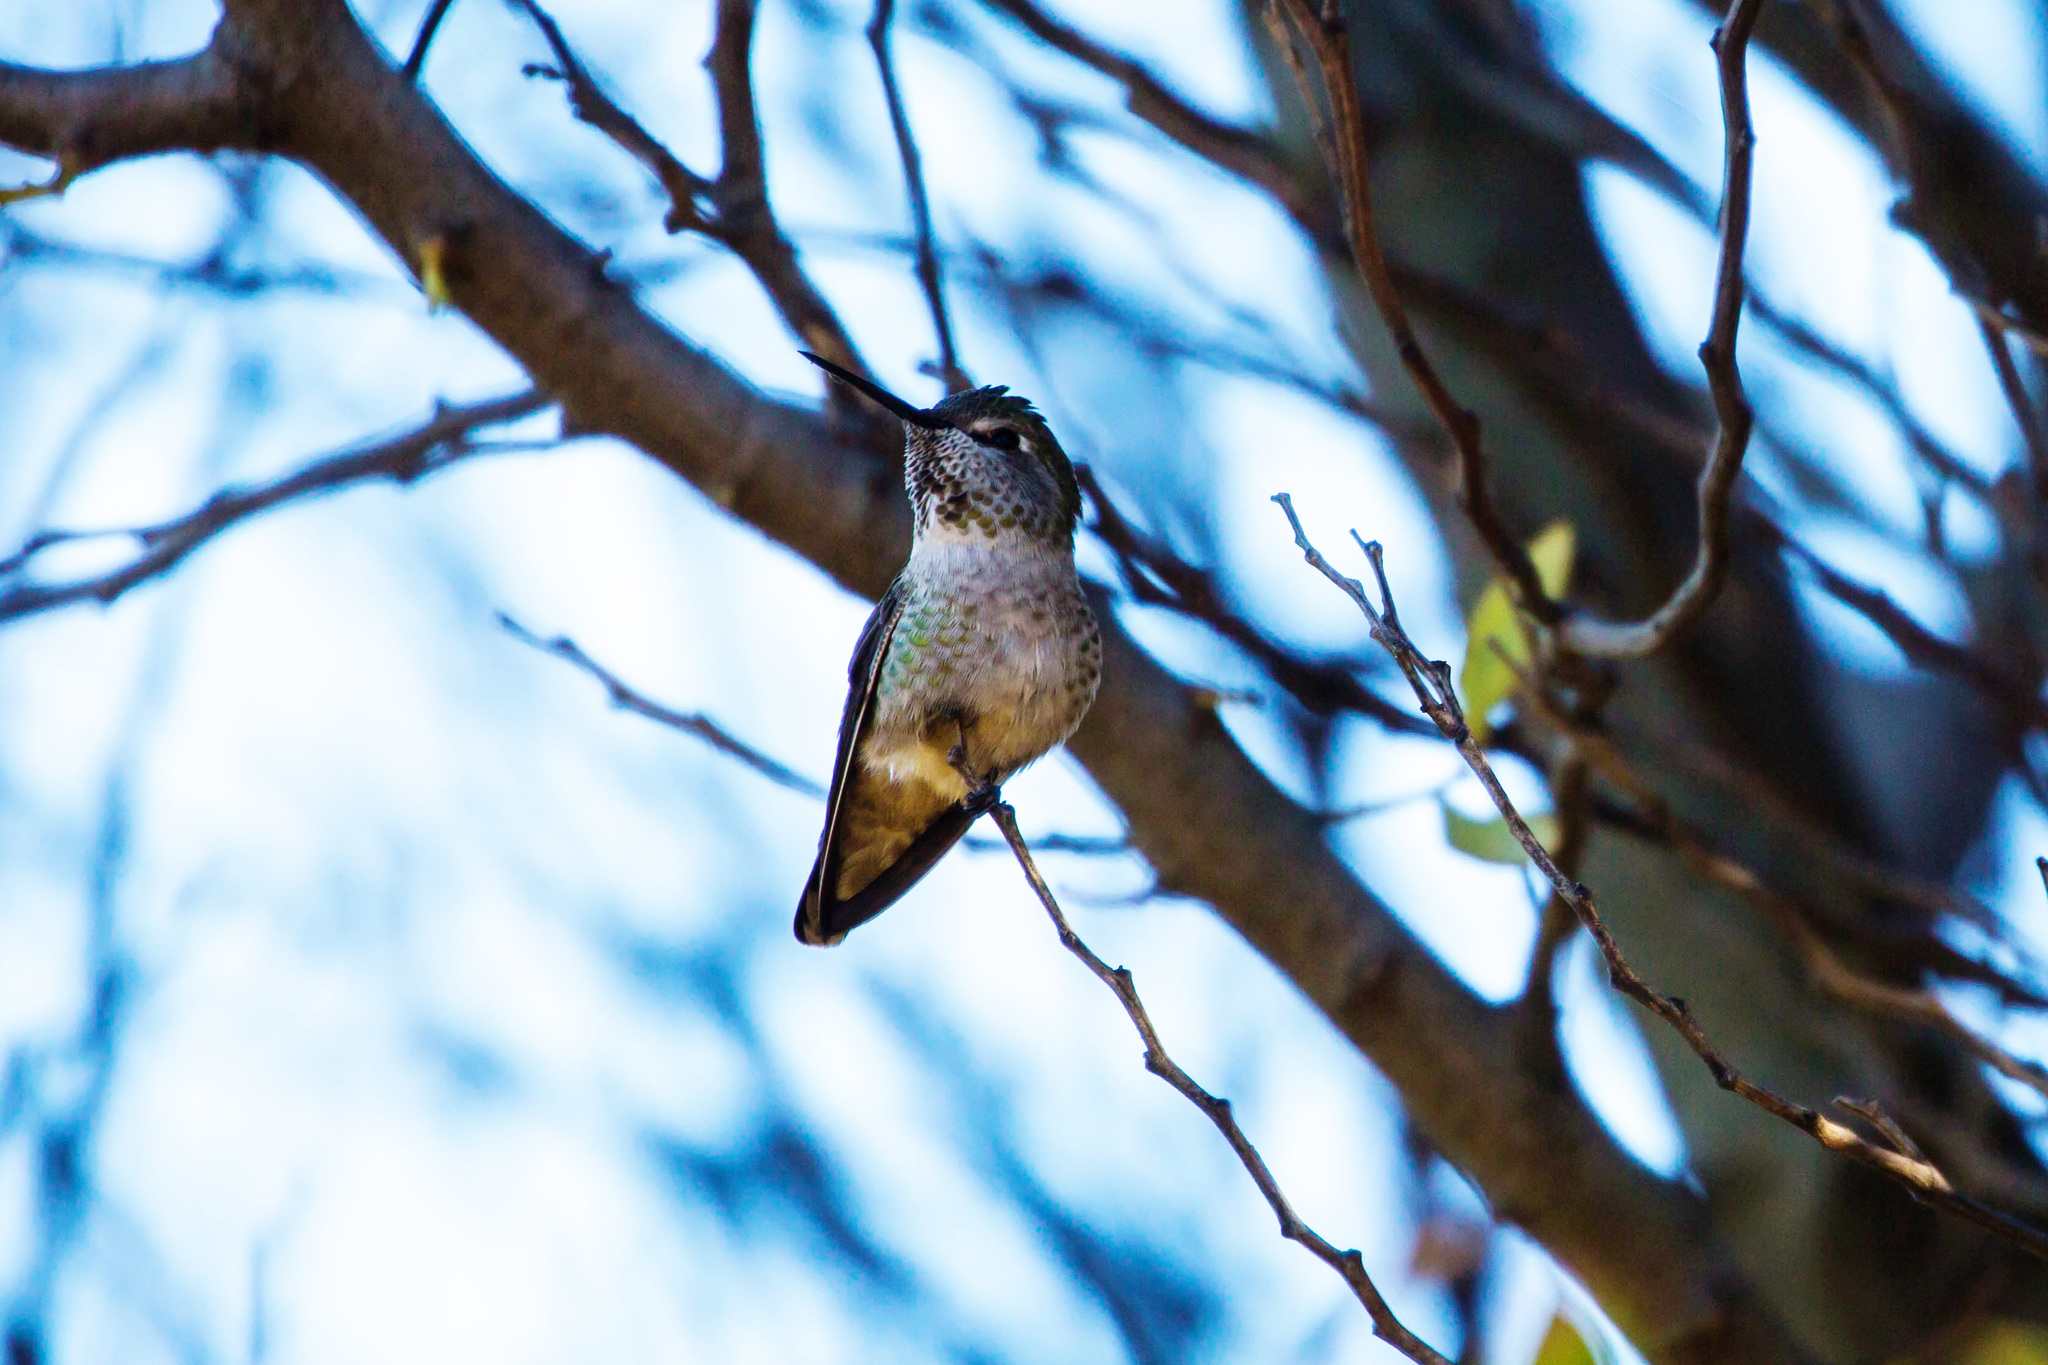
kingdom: Animalia
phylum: Chordata
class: Aves
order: Apodiformes
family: Trochilidae
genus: Calypte
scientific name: Calypte anna
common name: Anna's hummingbird
